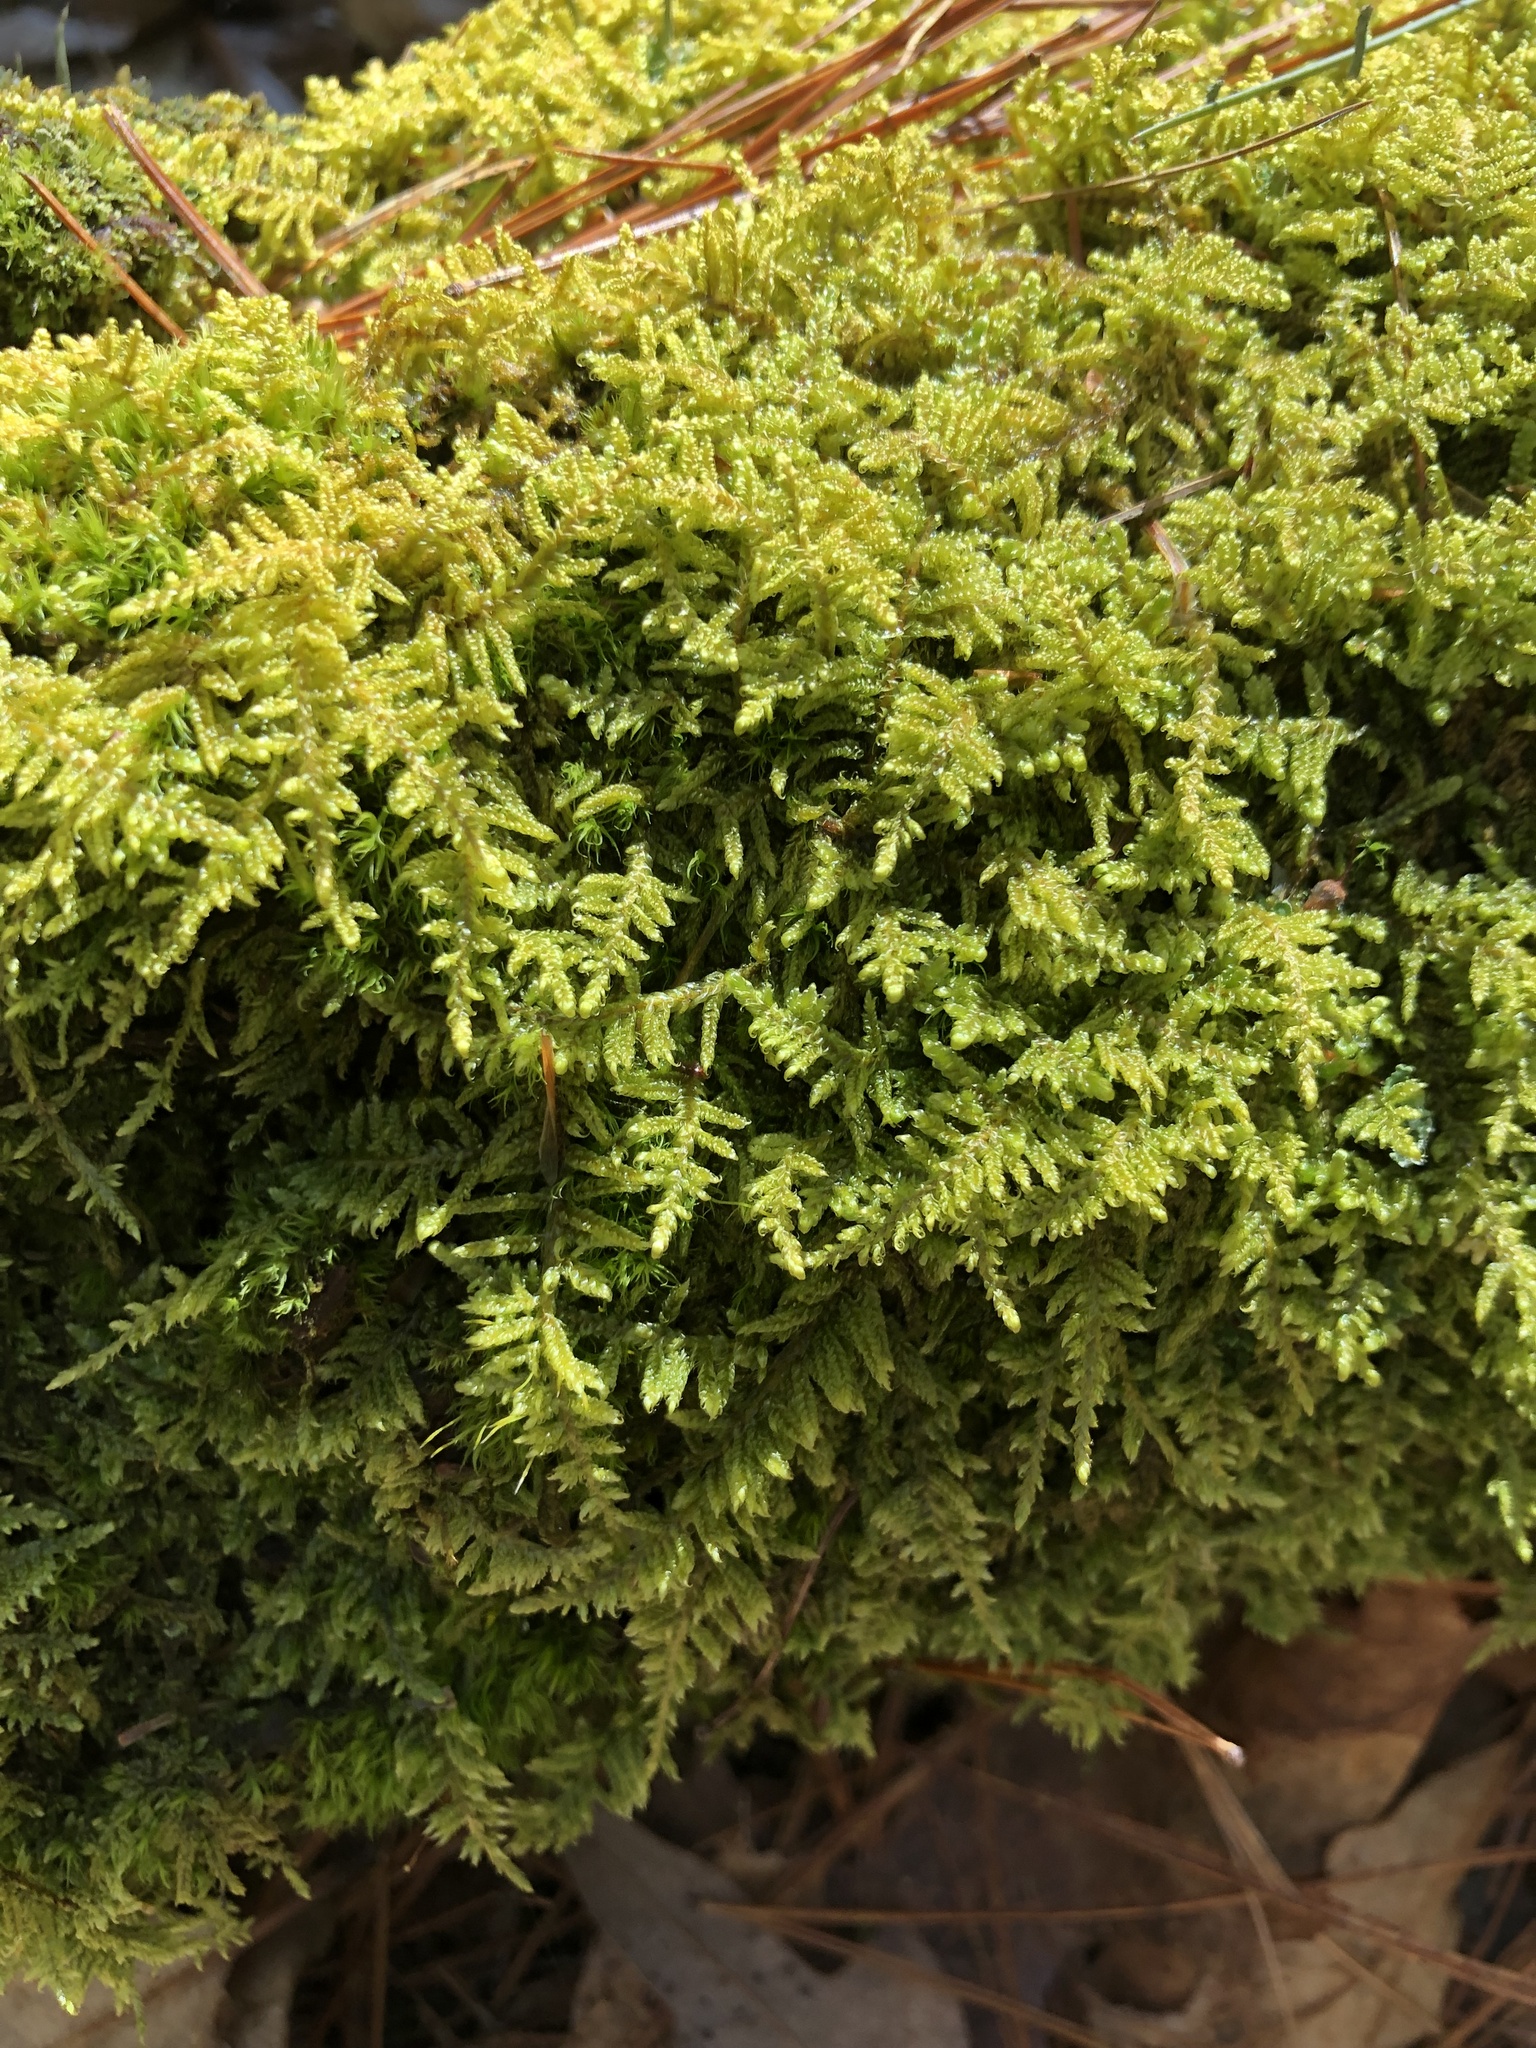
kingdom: Plantae
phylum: Bryophyta
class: Bryopsida
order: Hypnales
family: Callicladiaceae
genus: Callicladium
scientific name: Callicladium imponens
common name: Brocade moss
